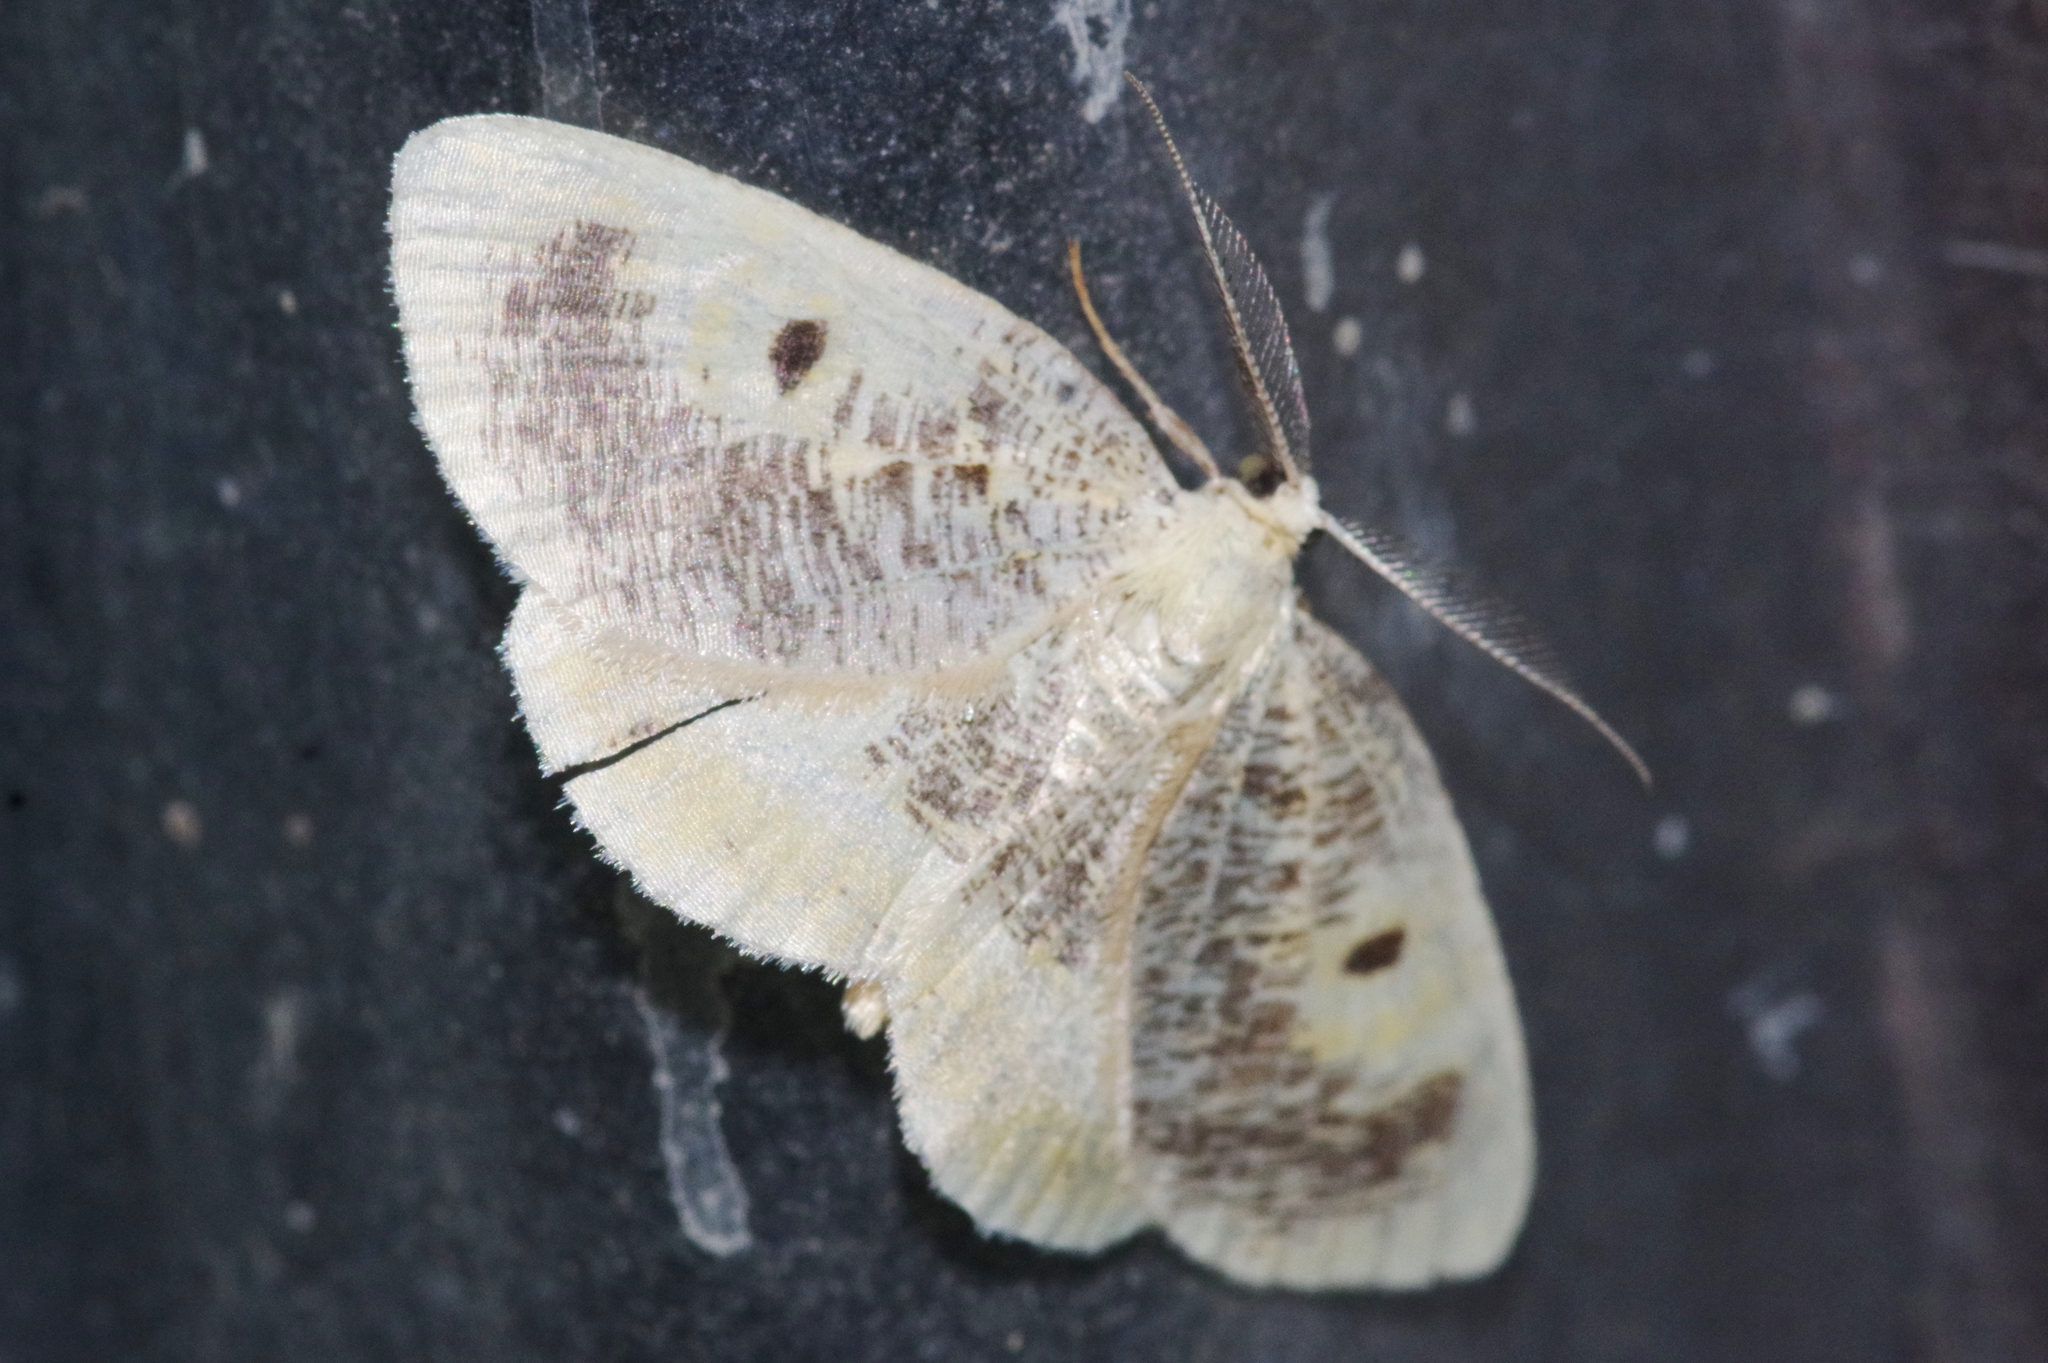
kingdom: Animalia
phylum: Arthropoda
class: Insecta
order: Lepidoptera
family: Geometridae
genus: Euchristophia
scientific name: Euchristophia cumulata
